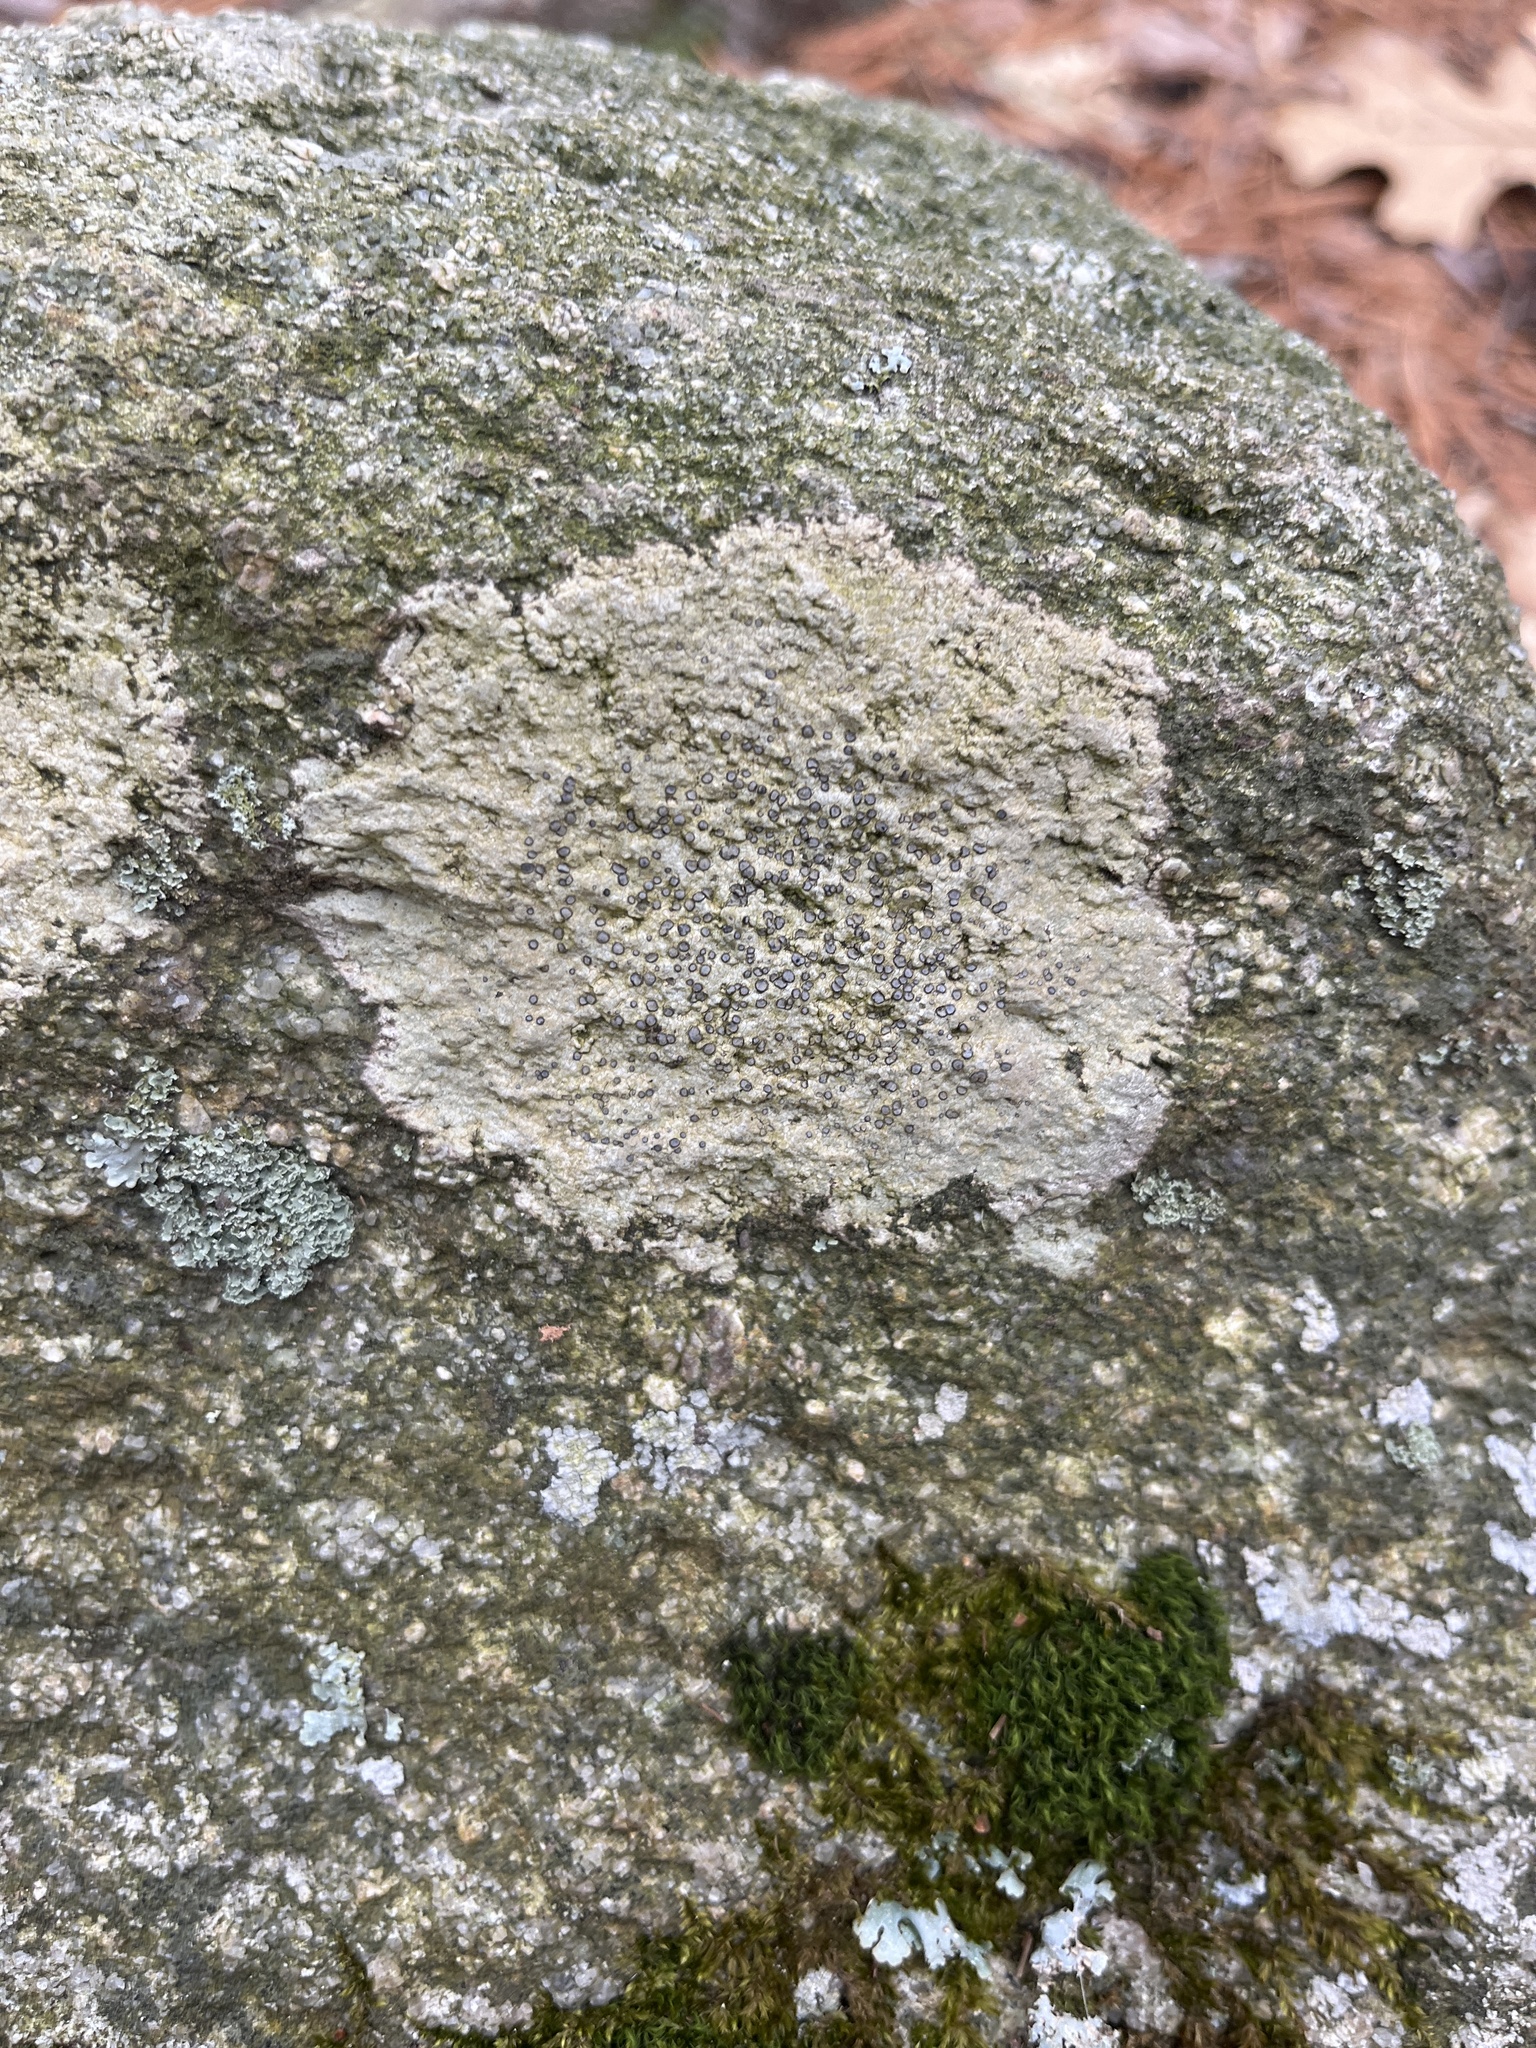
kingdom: Fungi
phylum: Ascomycota
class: Lecanoromycetes
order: Lecideales
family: Lecideaceae
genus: Porpidia
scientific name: Porpidia albocaerulescens
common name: Smokey-eyed boulder lichen
